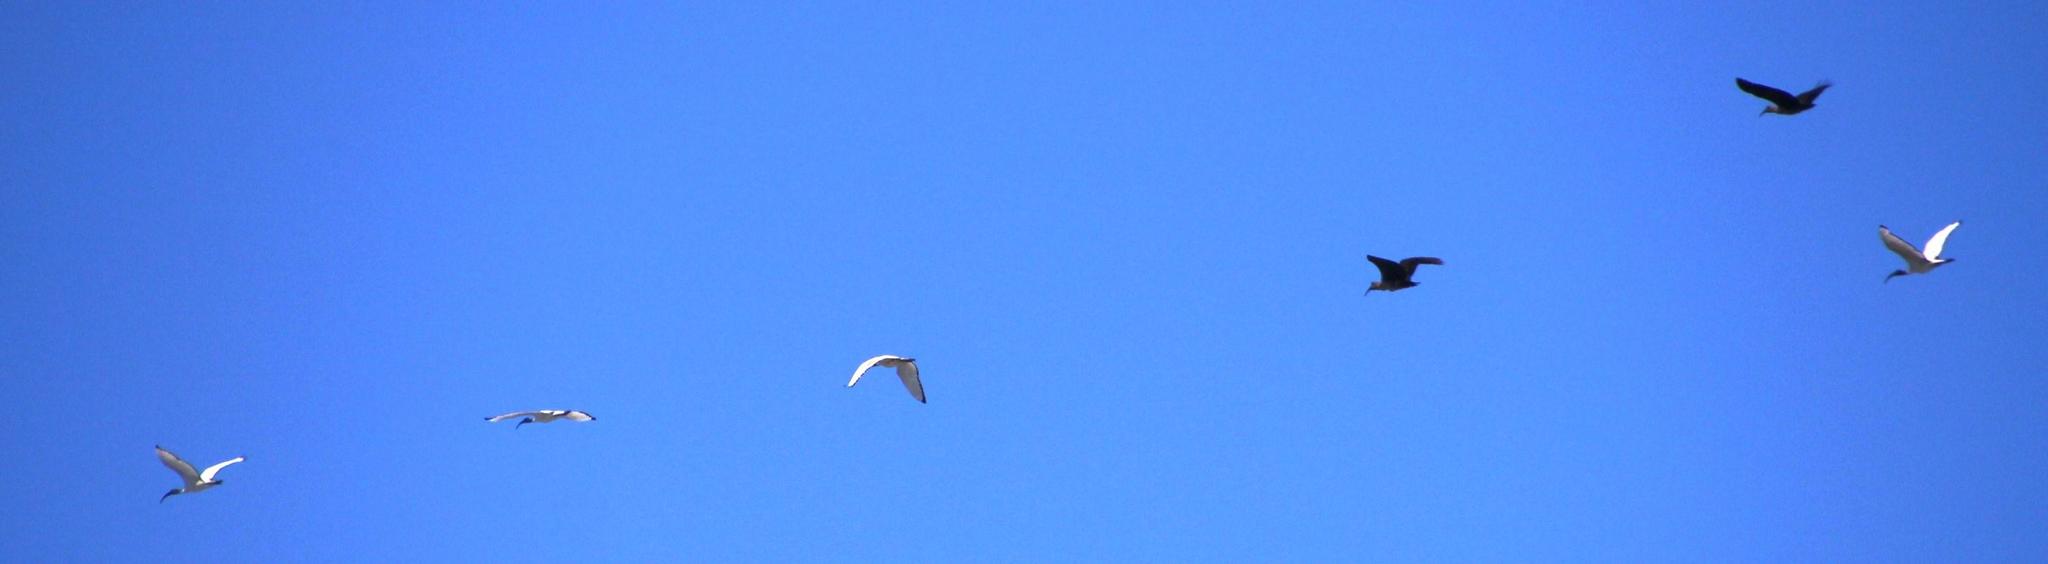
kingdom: Animalia
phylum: Chordata
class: Aves
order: Pelecaniformes
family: Threskiornithidae
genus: Threskiornis
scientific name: Threskiornis aethiopicus
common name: Sacred ibis
